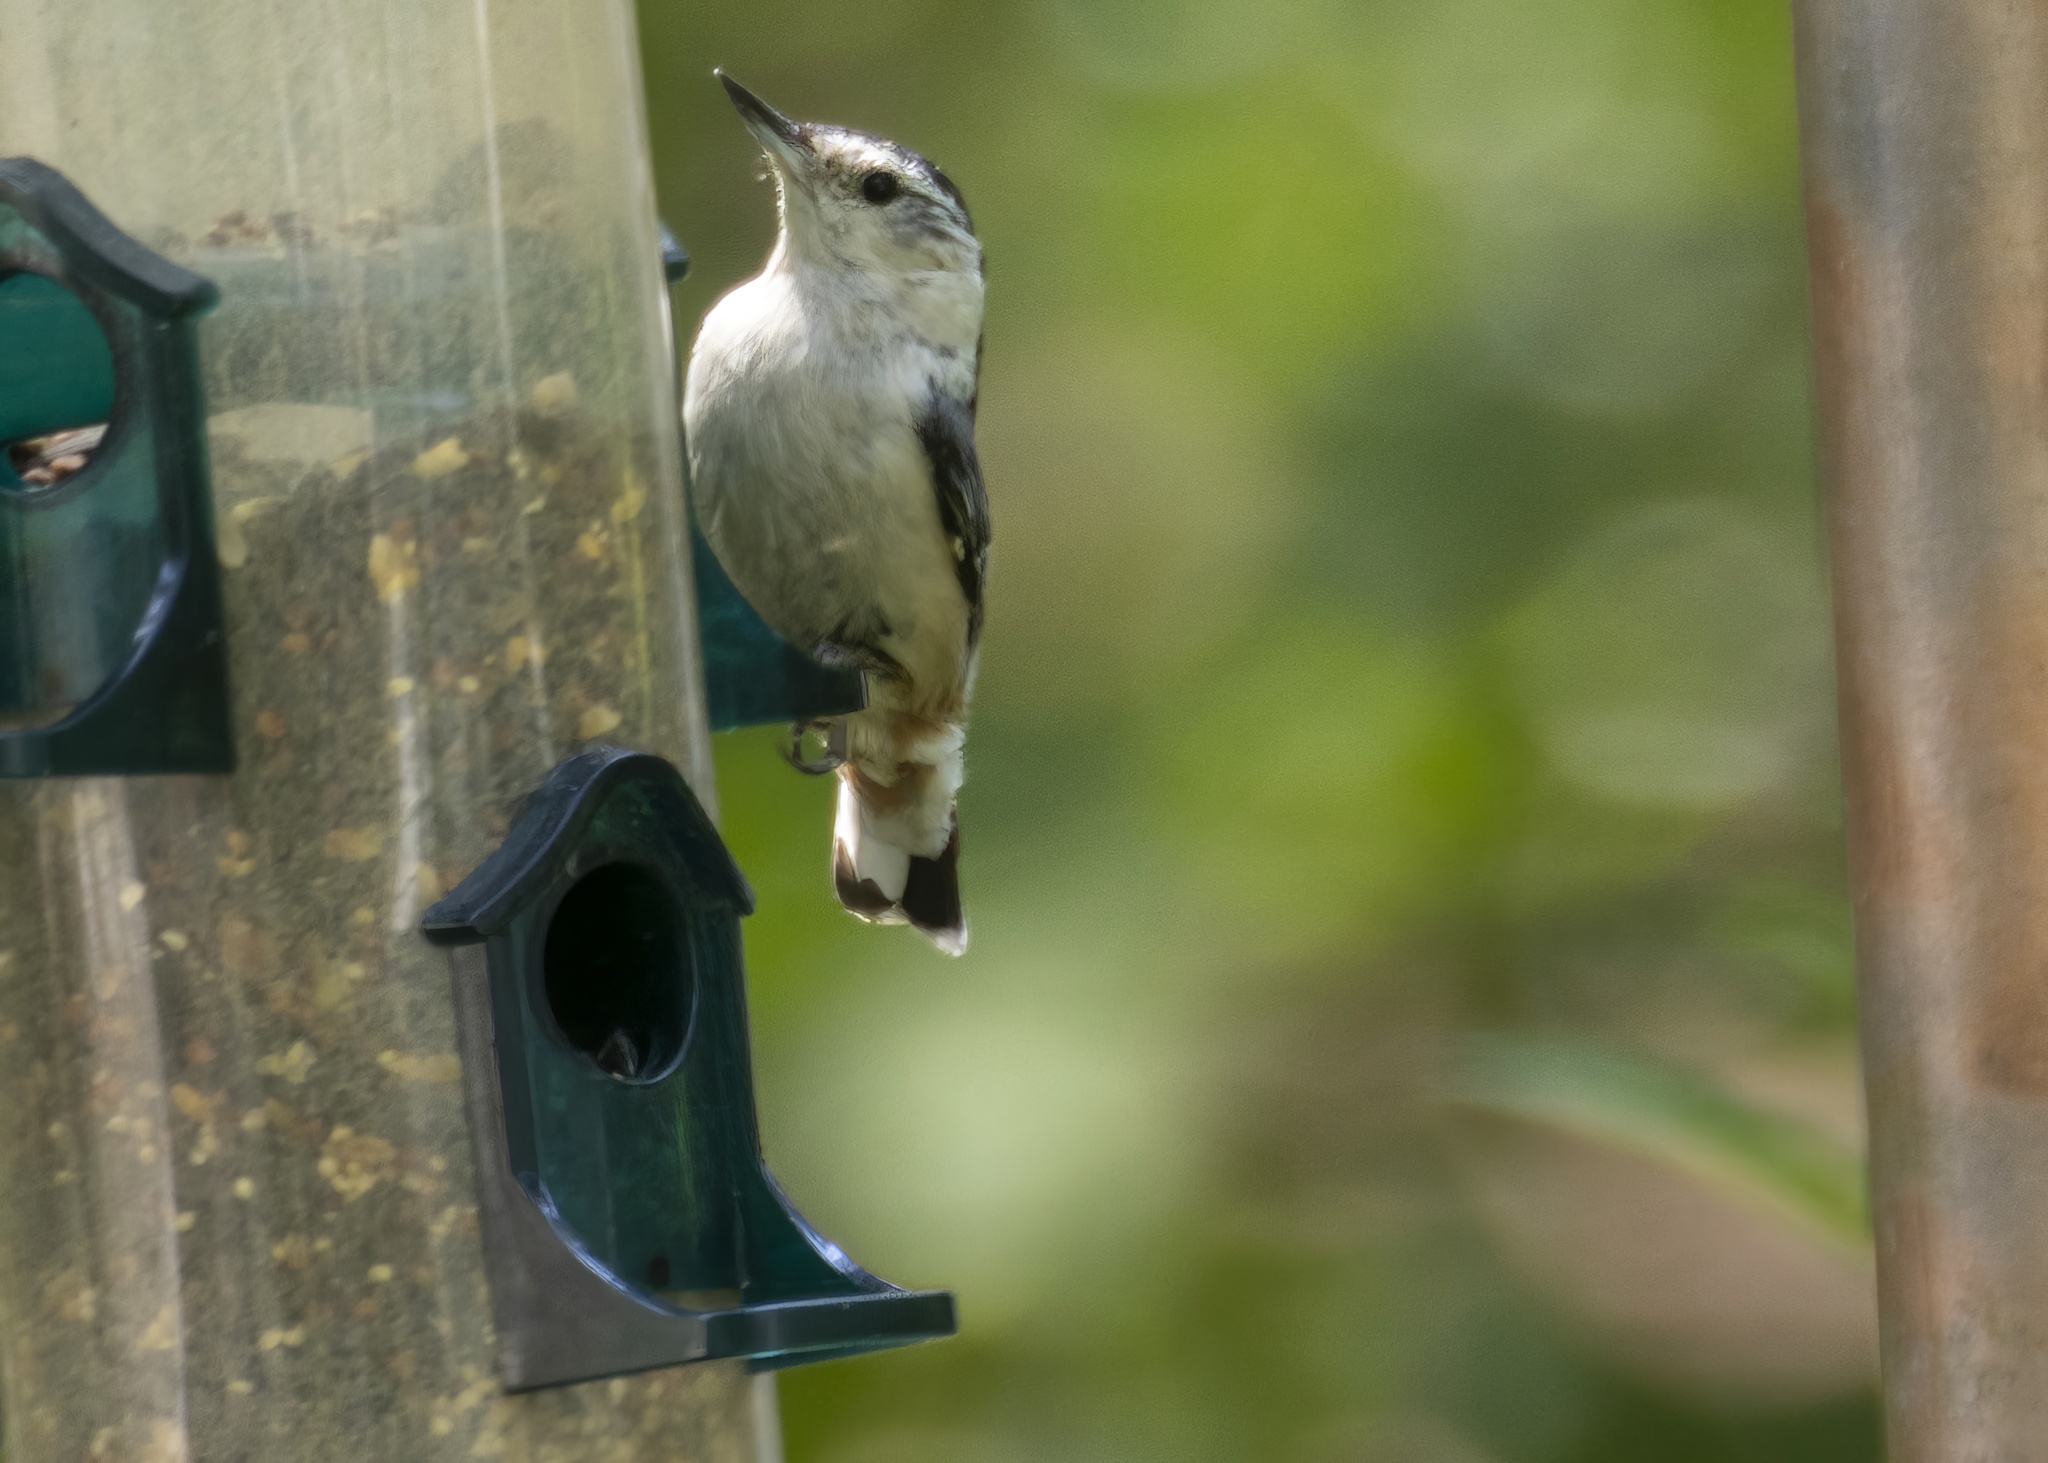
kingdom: Animalia
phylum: Chordata
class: Aves
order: Passeriformes
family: Sittidae
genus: Sitta
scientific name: Sitta carolinensis
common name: White-breasted nuthatch
